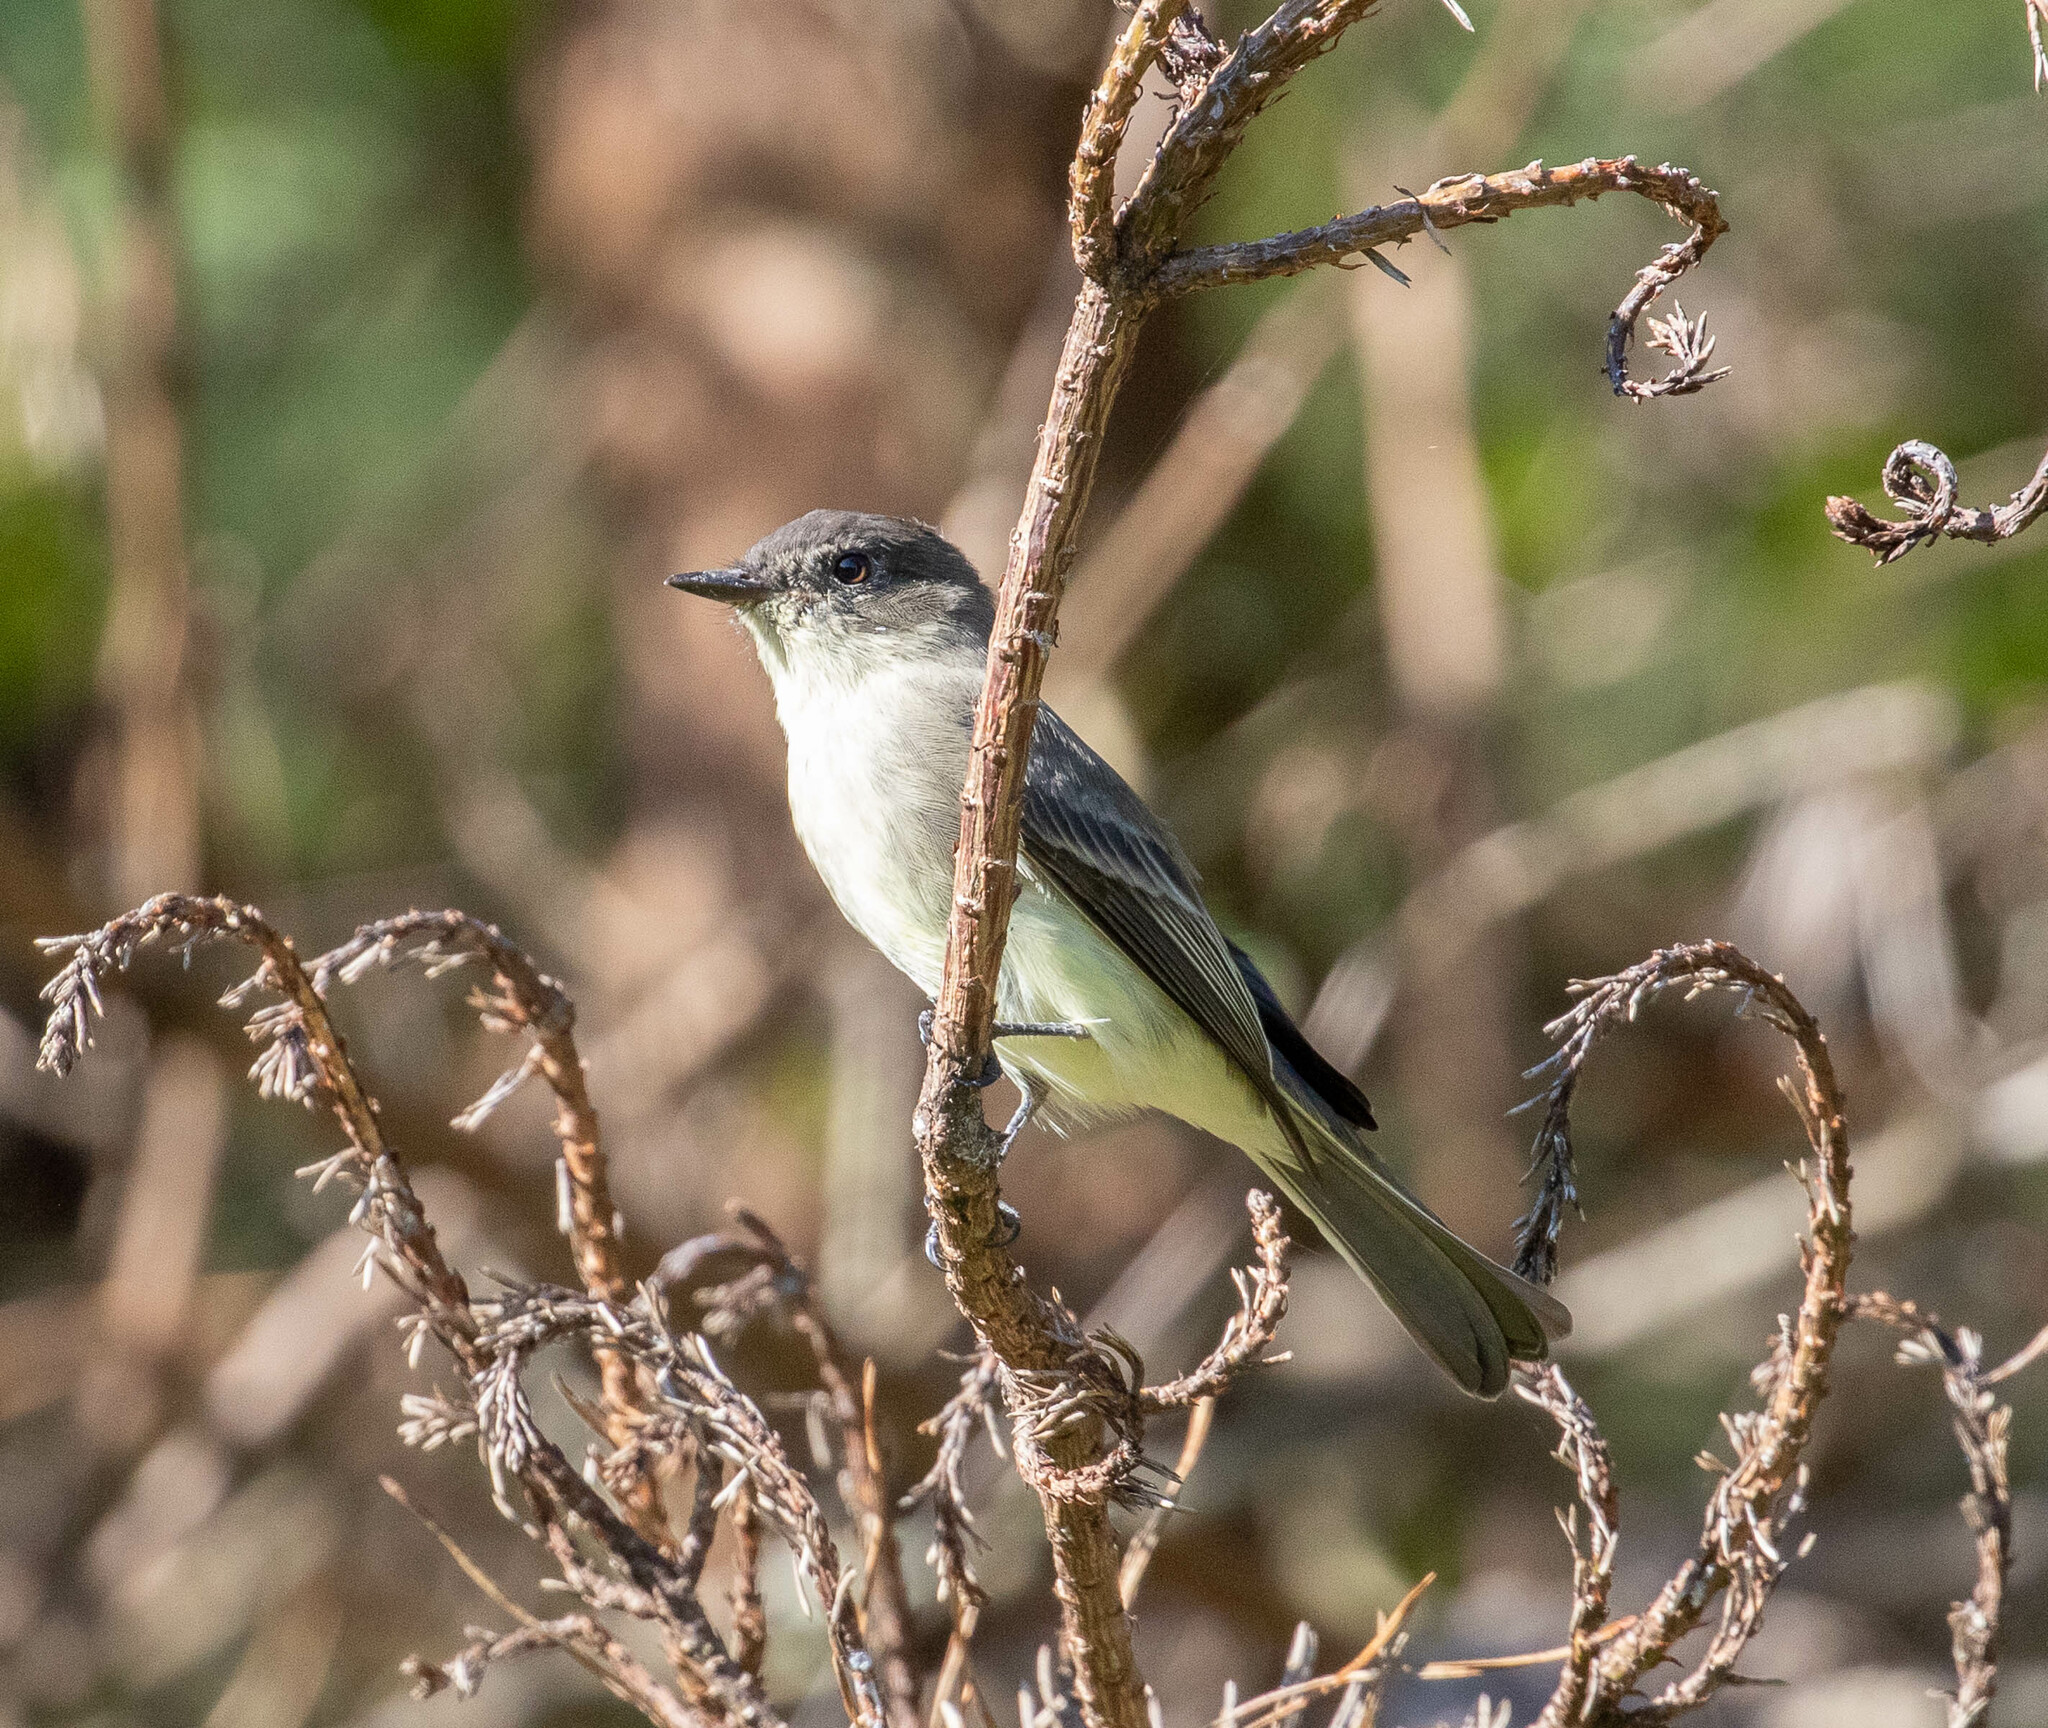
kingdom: Animalia
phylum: Chordata
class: Aves
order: Passeriformes
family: Tyrannidae
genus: Sayornis
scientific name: Sayornis phoebe
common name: Eastern phoebe
